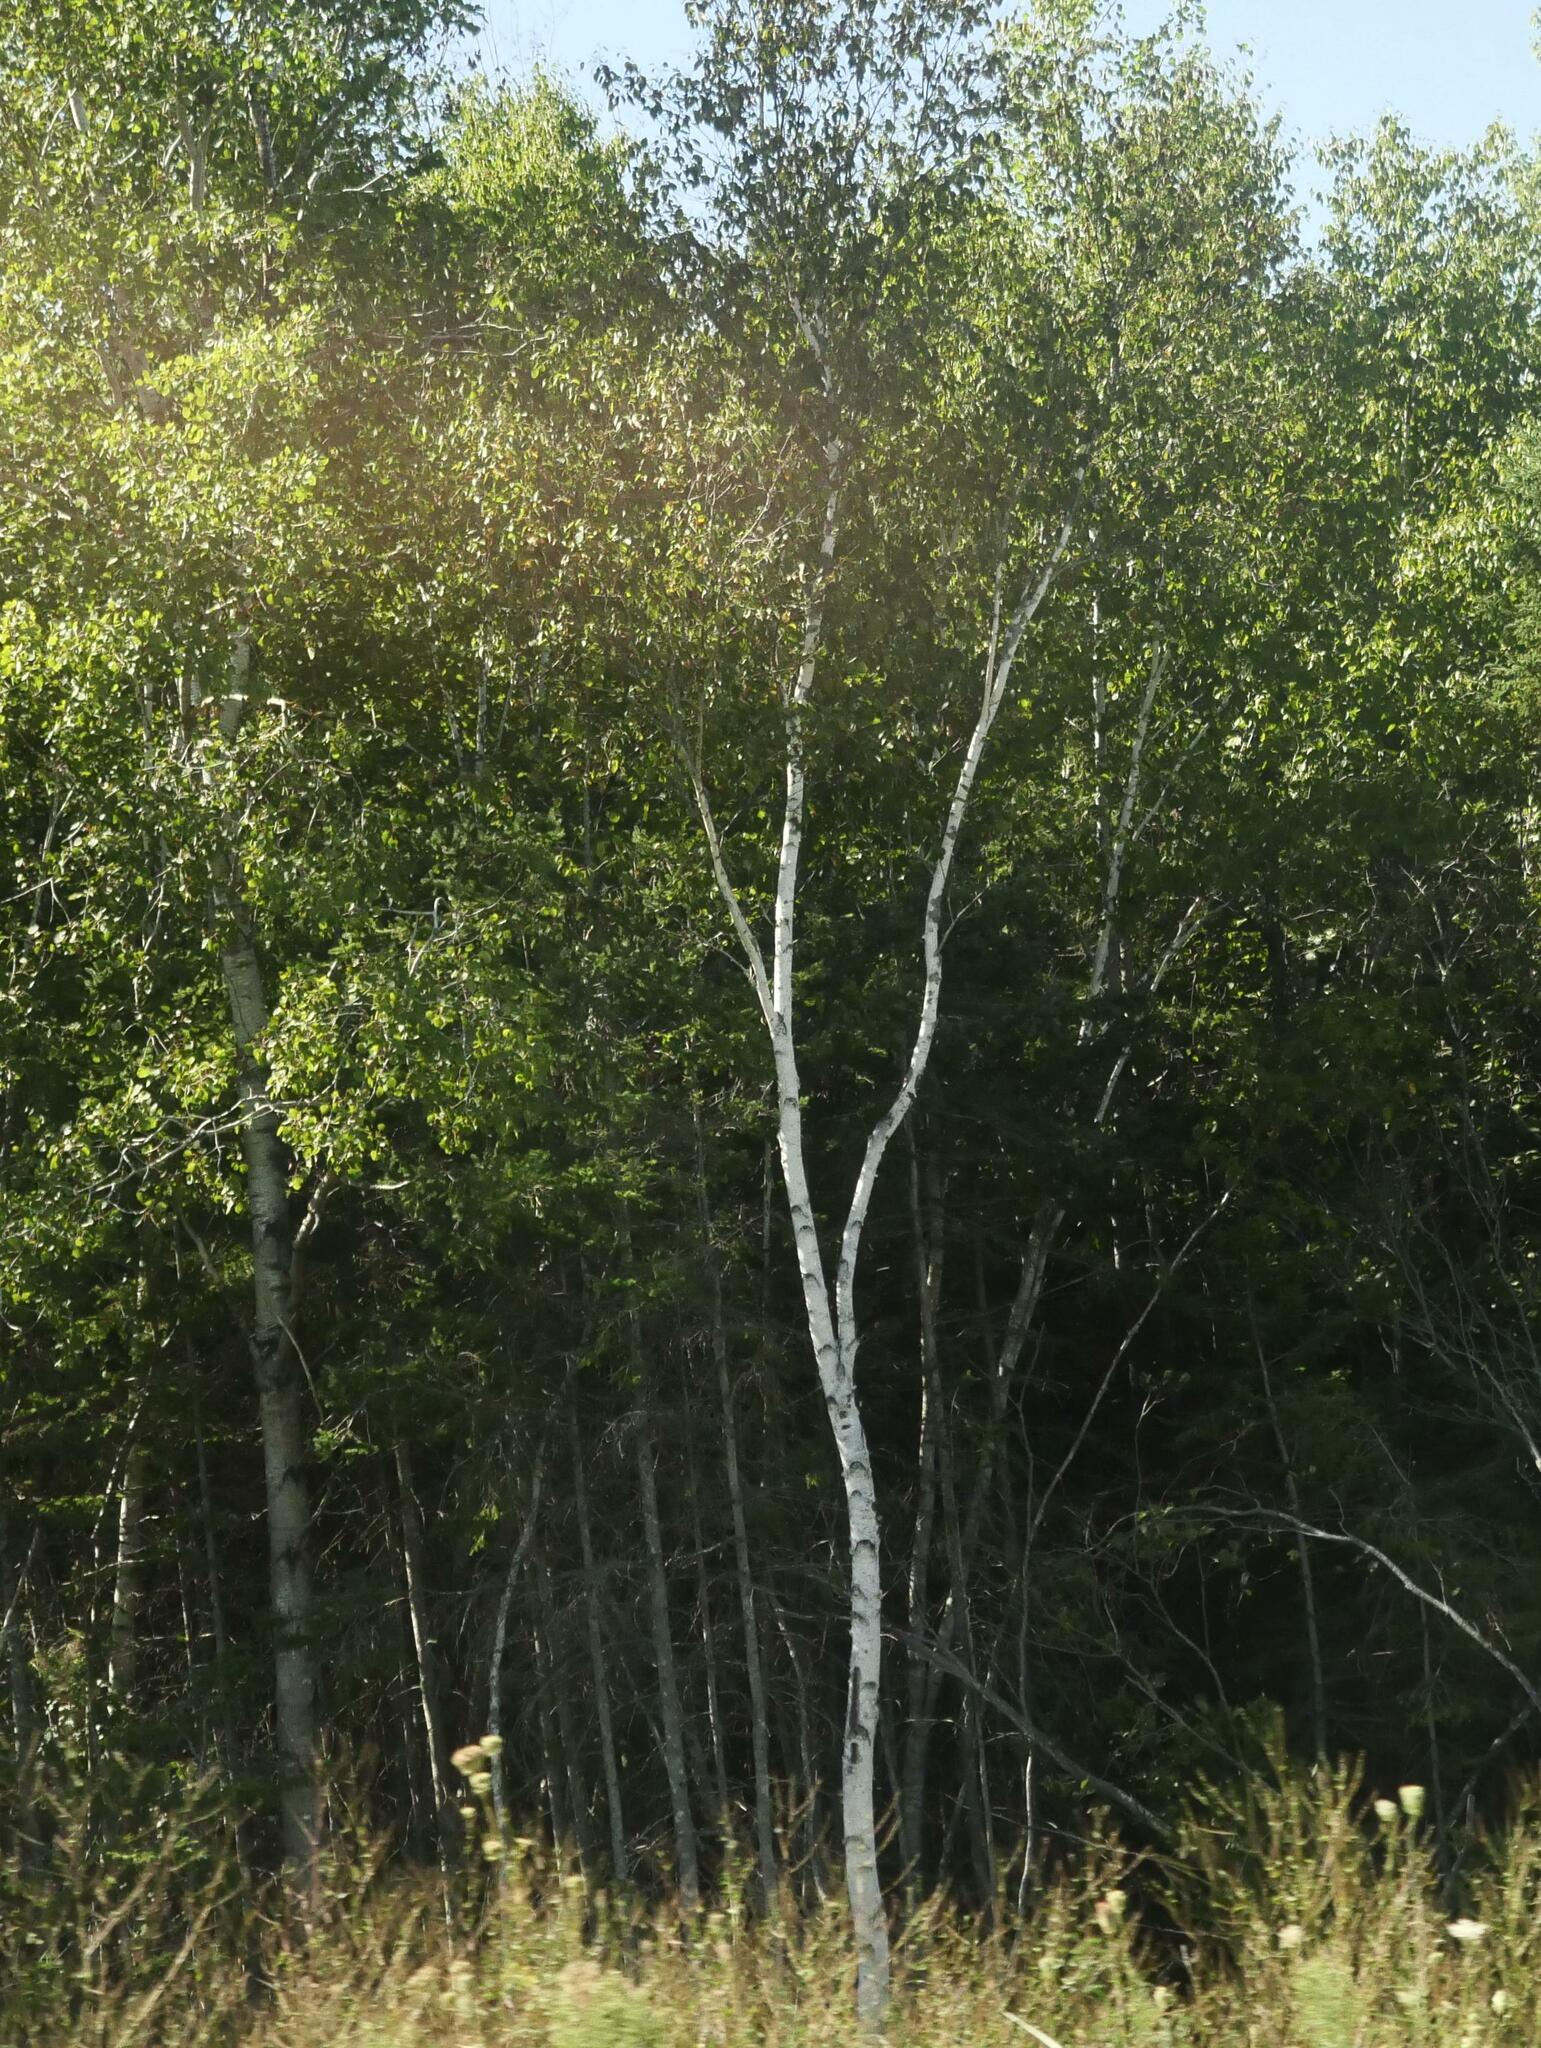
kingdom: Plantae
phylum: Tracheophyta
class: Magnoliopsida
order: Fagales
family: Betulaceae
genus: Betula
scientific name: Betula papyrifera
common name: Paper birch
